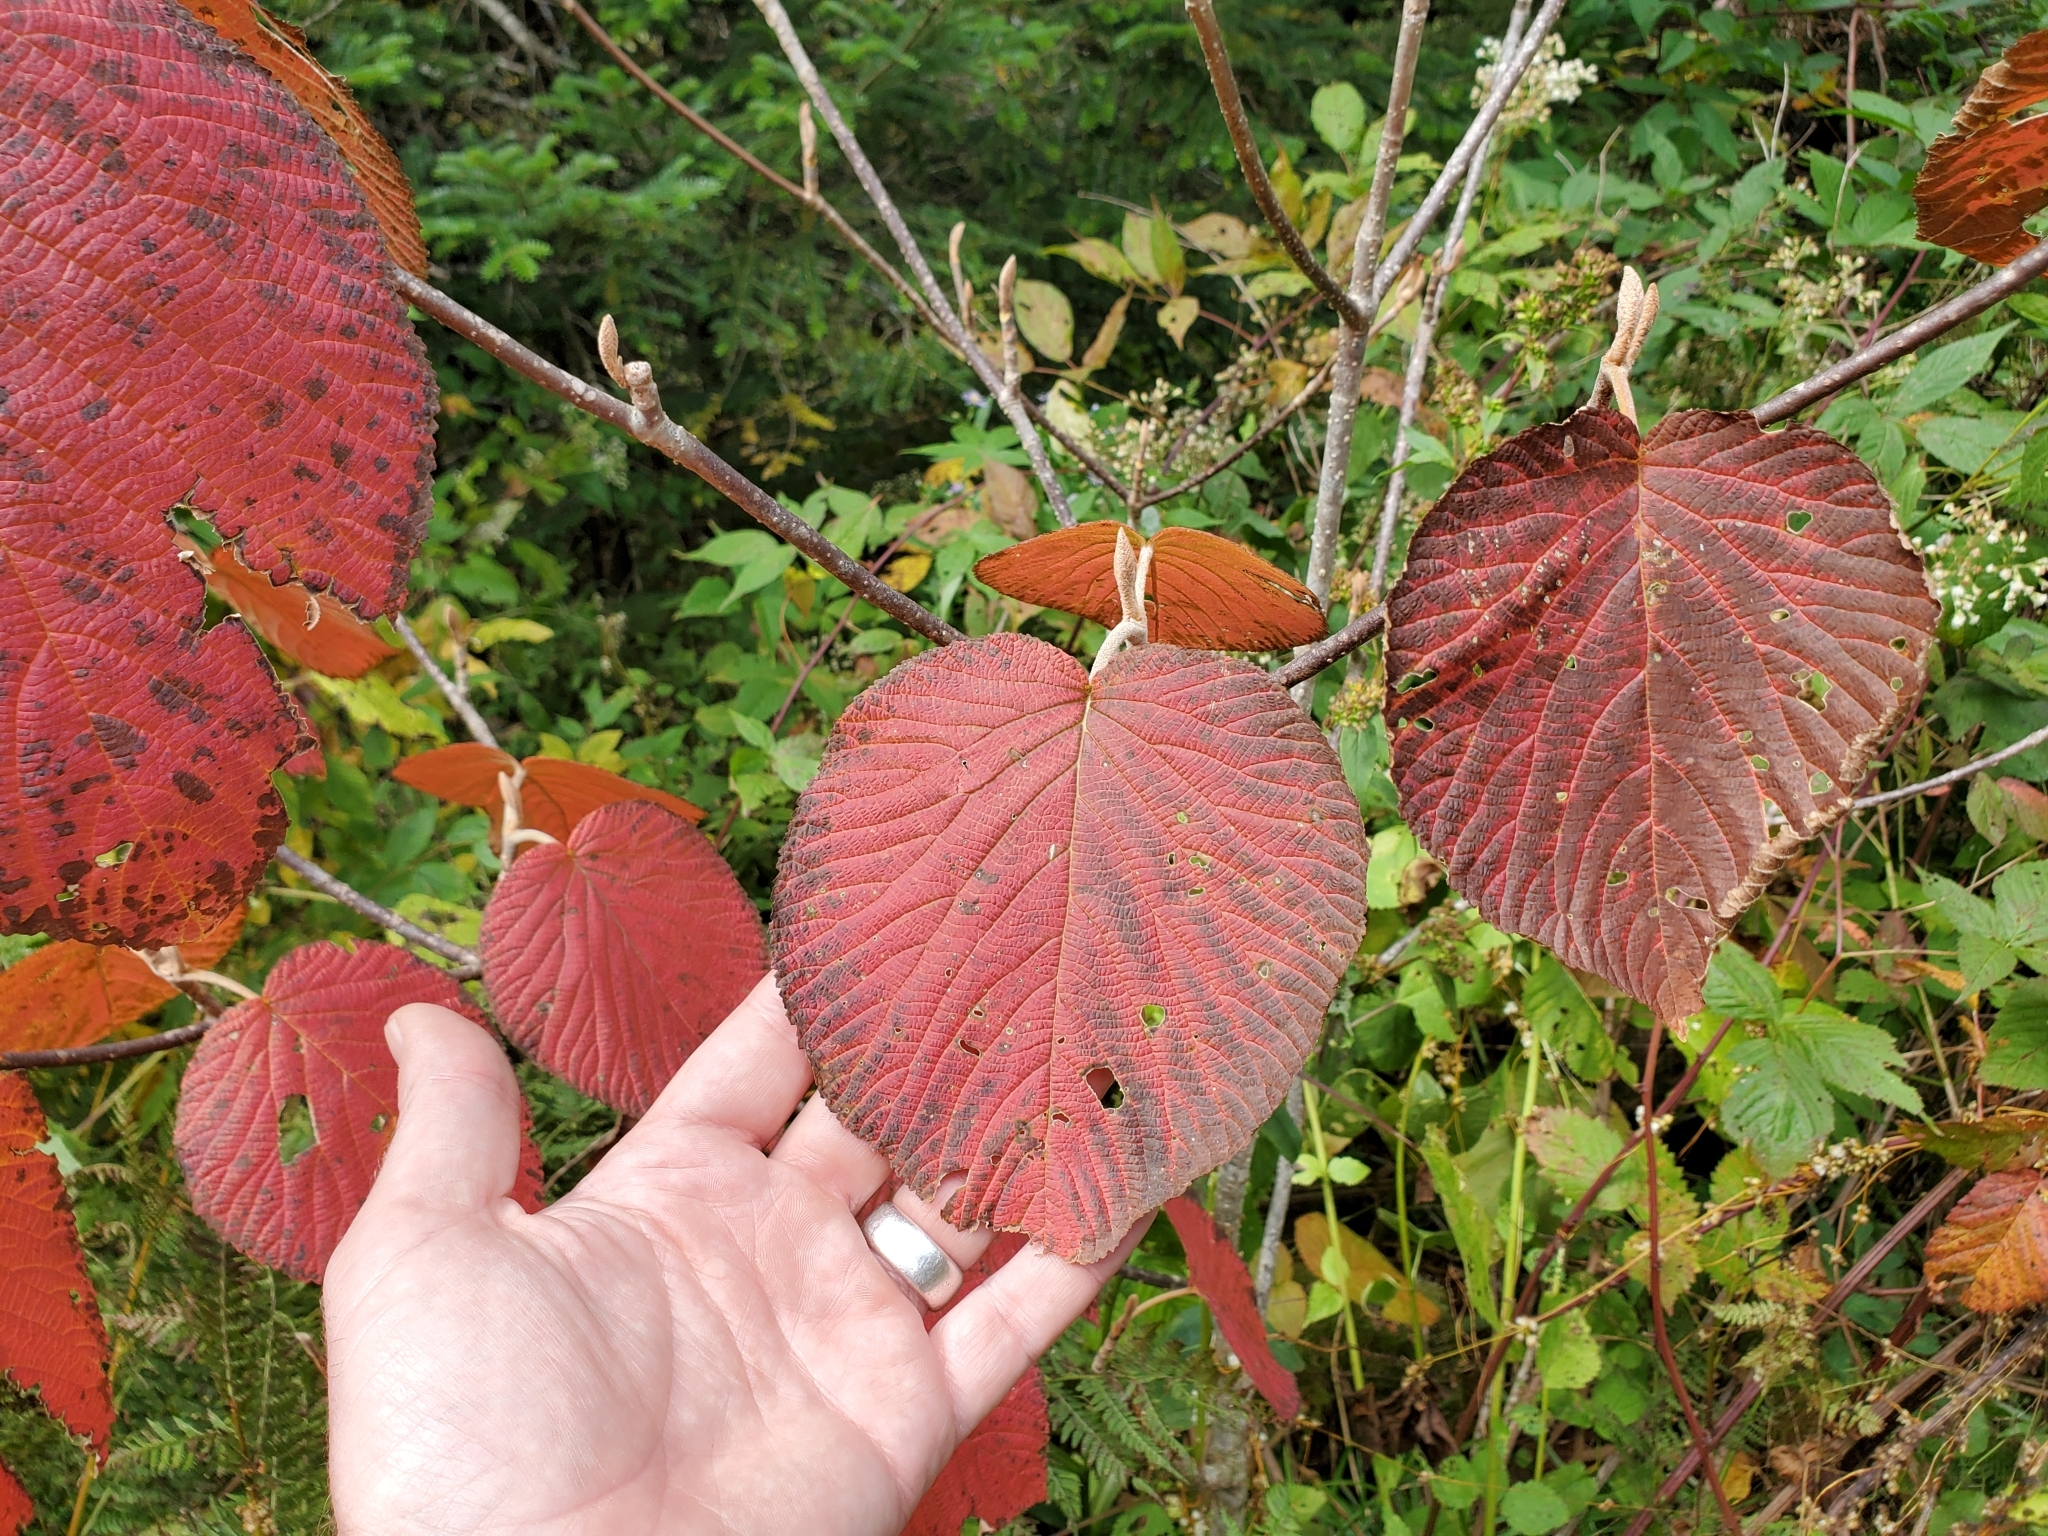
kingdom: Plantae
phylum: Tracheophyta
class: Magnoliopsida
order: Dipsacales
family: Viburnaceae
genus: Viburnum
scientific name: Viburnum lantanoides
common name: Hobblebush
